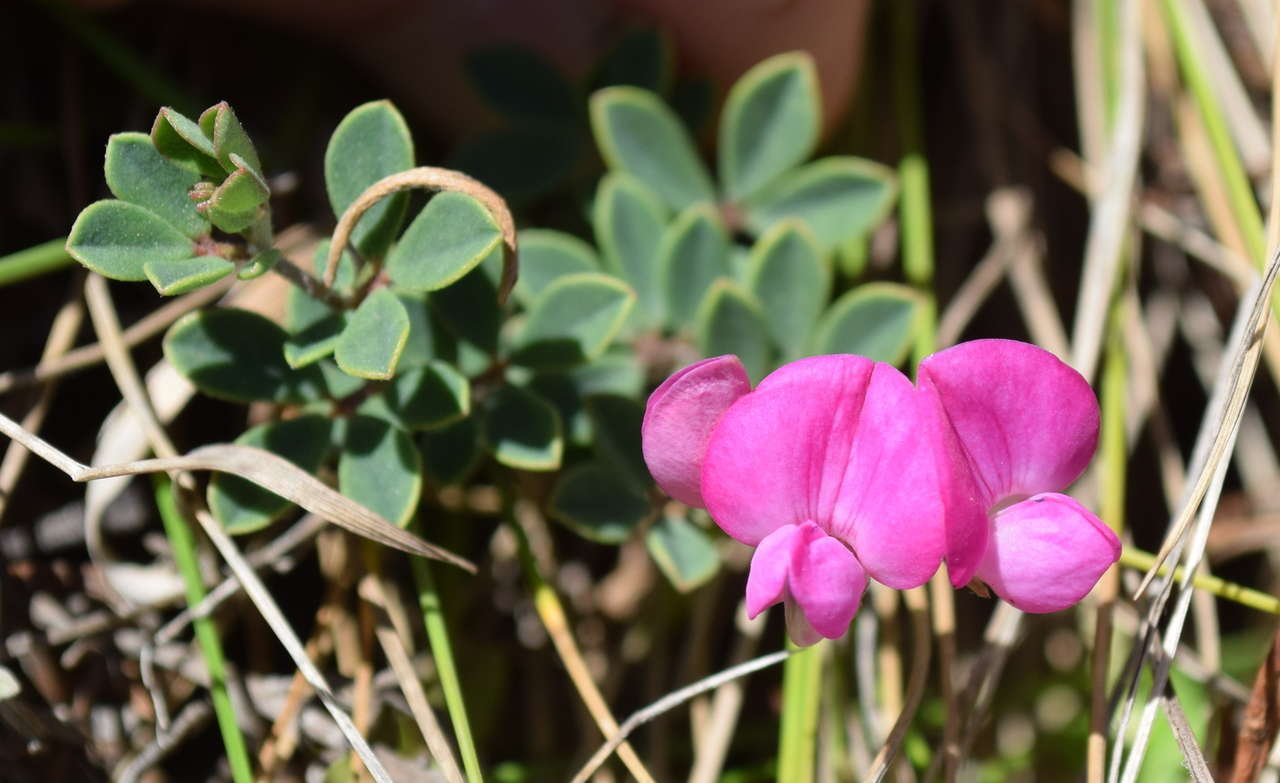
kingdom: Plantae
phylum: Tracheophyta
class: Magnoliopsida
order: Fabales
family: Fabaceae
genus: Lotus
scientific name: Lotus australis
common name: Australian trefoil
